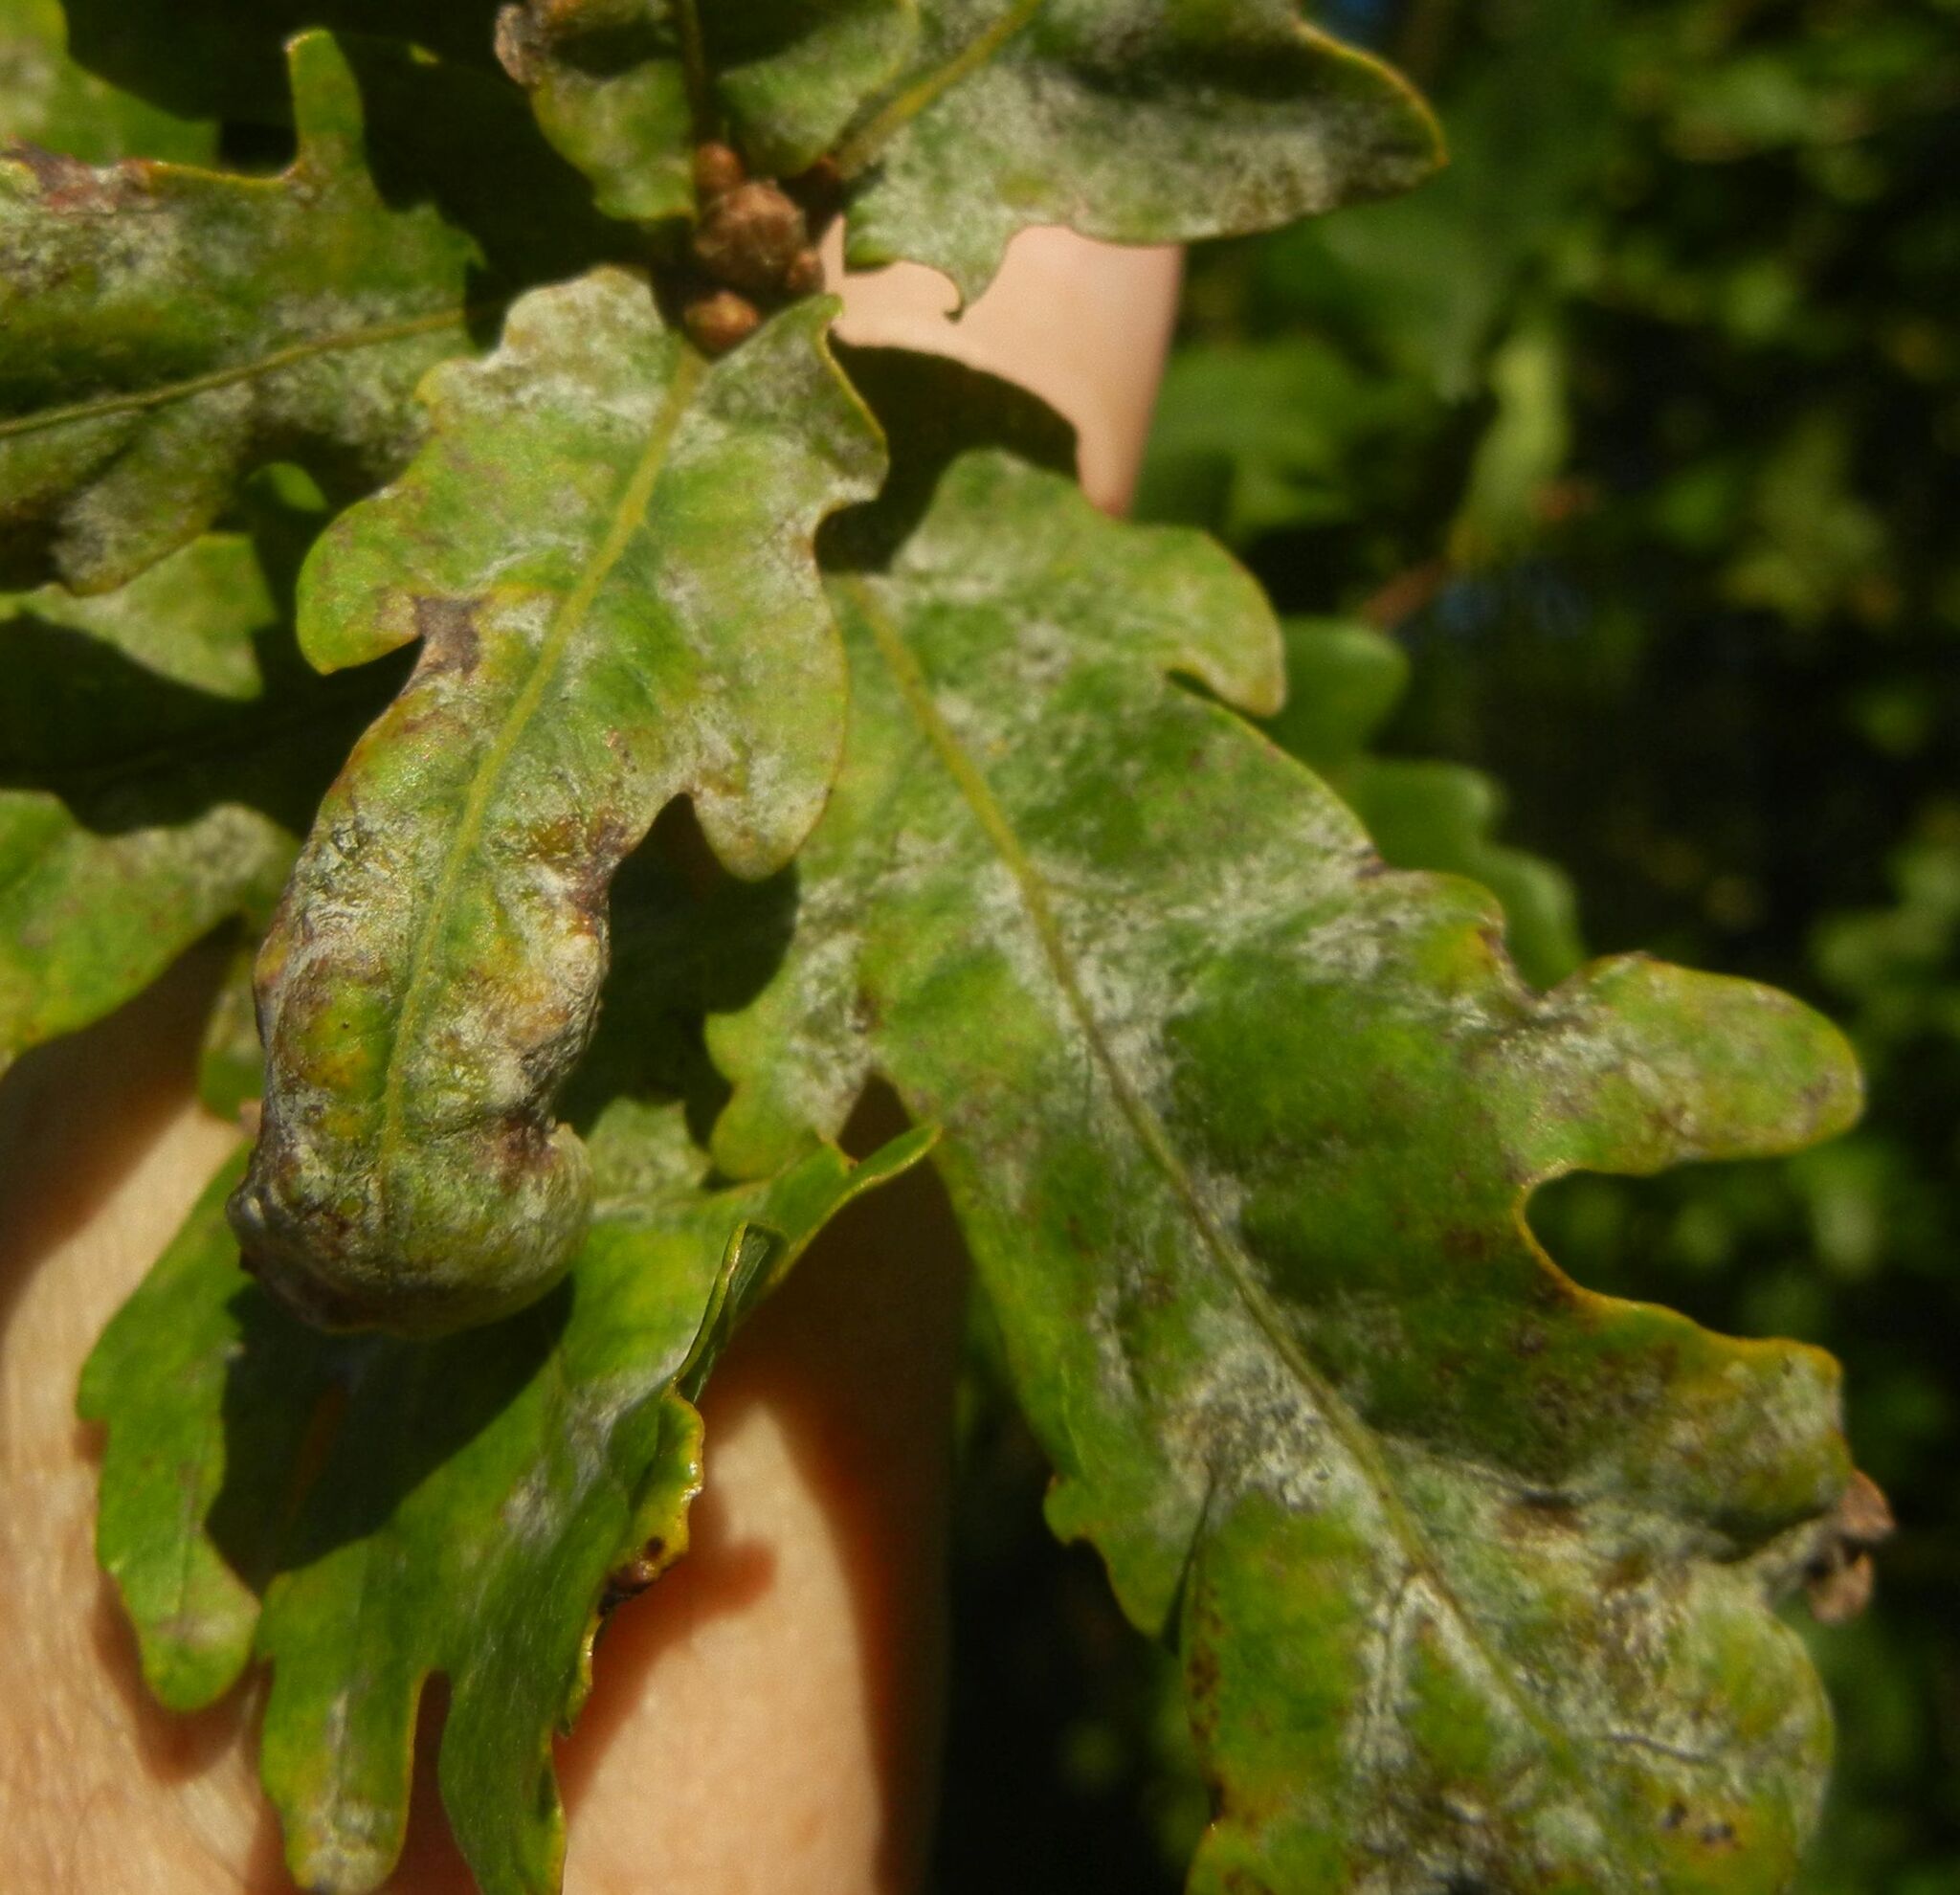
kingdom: Fungi
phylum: Ascomycota
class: Leotiomycetes
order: Helotiales
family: Erysiphaceae
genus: Erysiphe
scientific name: Erysiphe alphitoides
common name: Oak mildew
